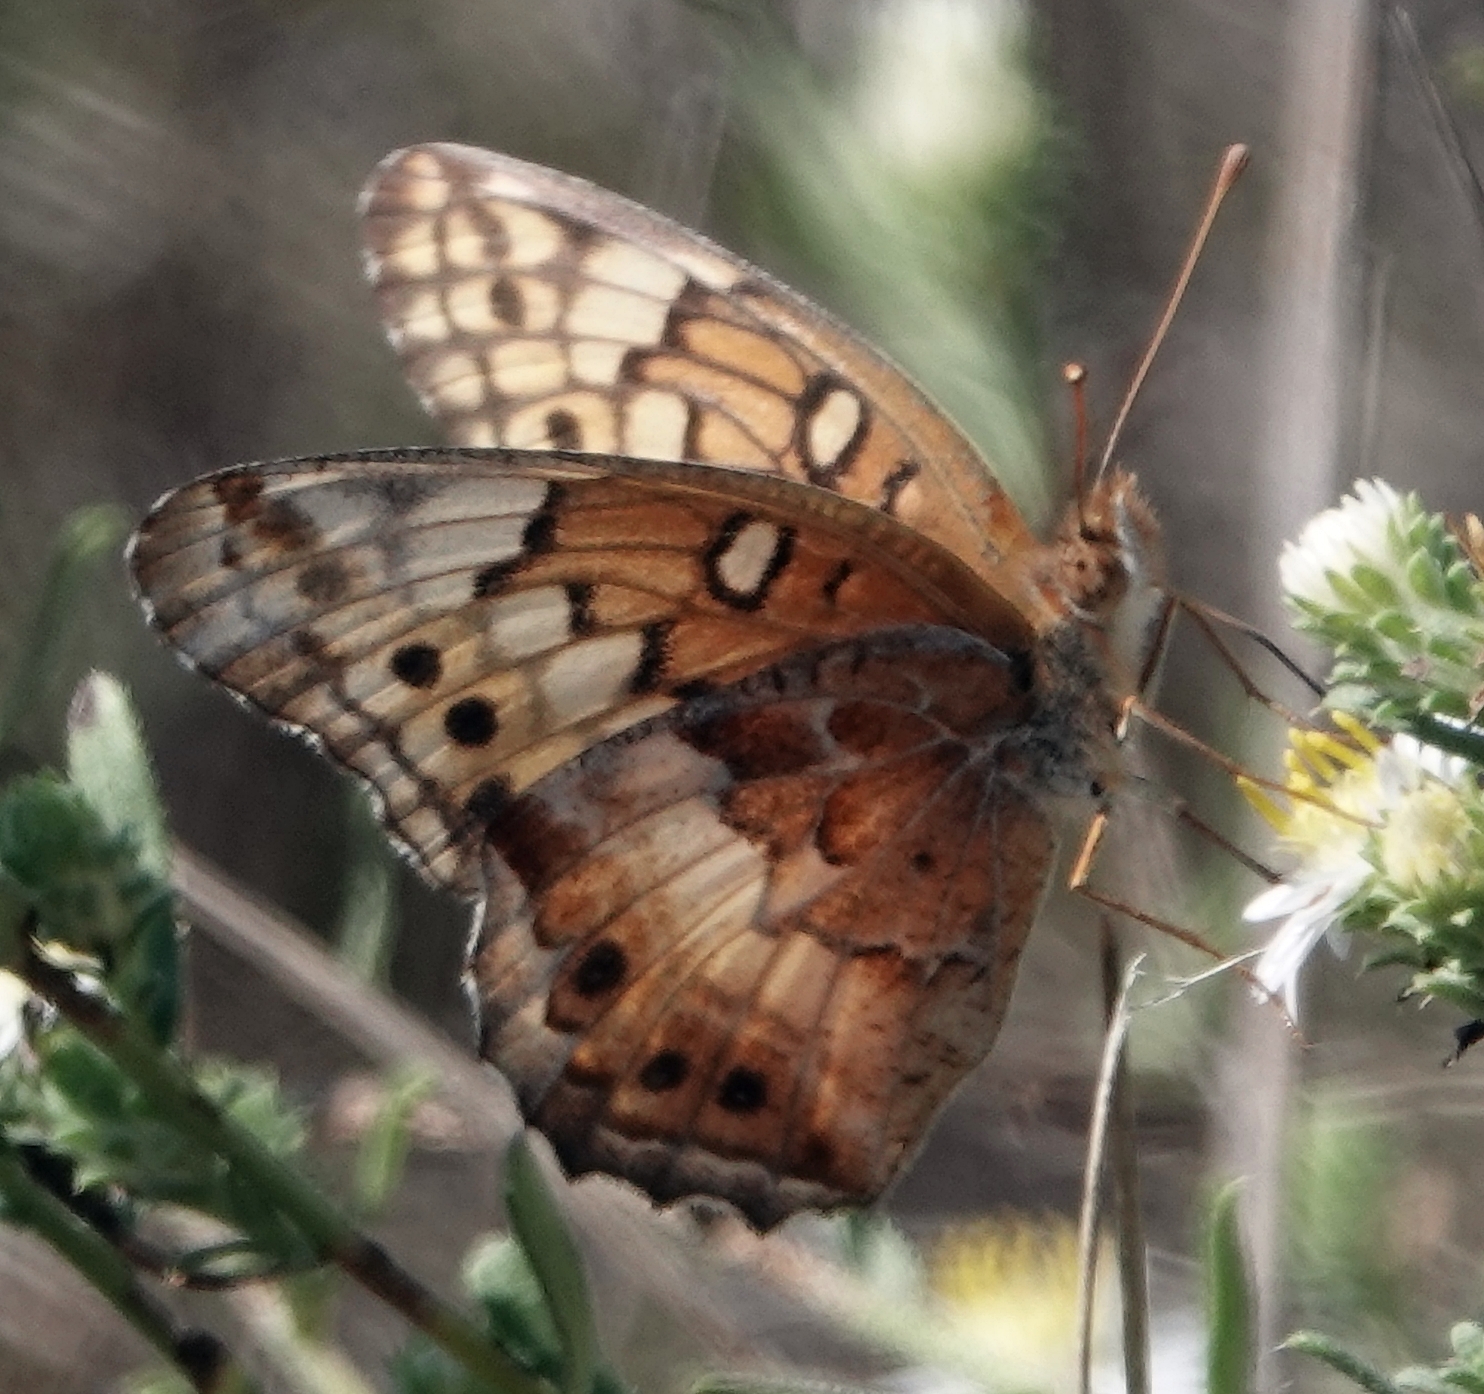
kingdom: Animalia
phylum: Arthropoda
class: Insecta
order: Lepidoptera
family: Nymphalidae
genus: Euptoieta
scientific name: Euptoieta claudia
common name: Variegated fritillary
